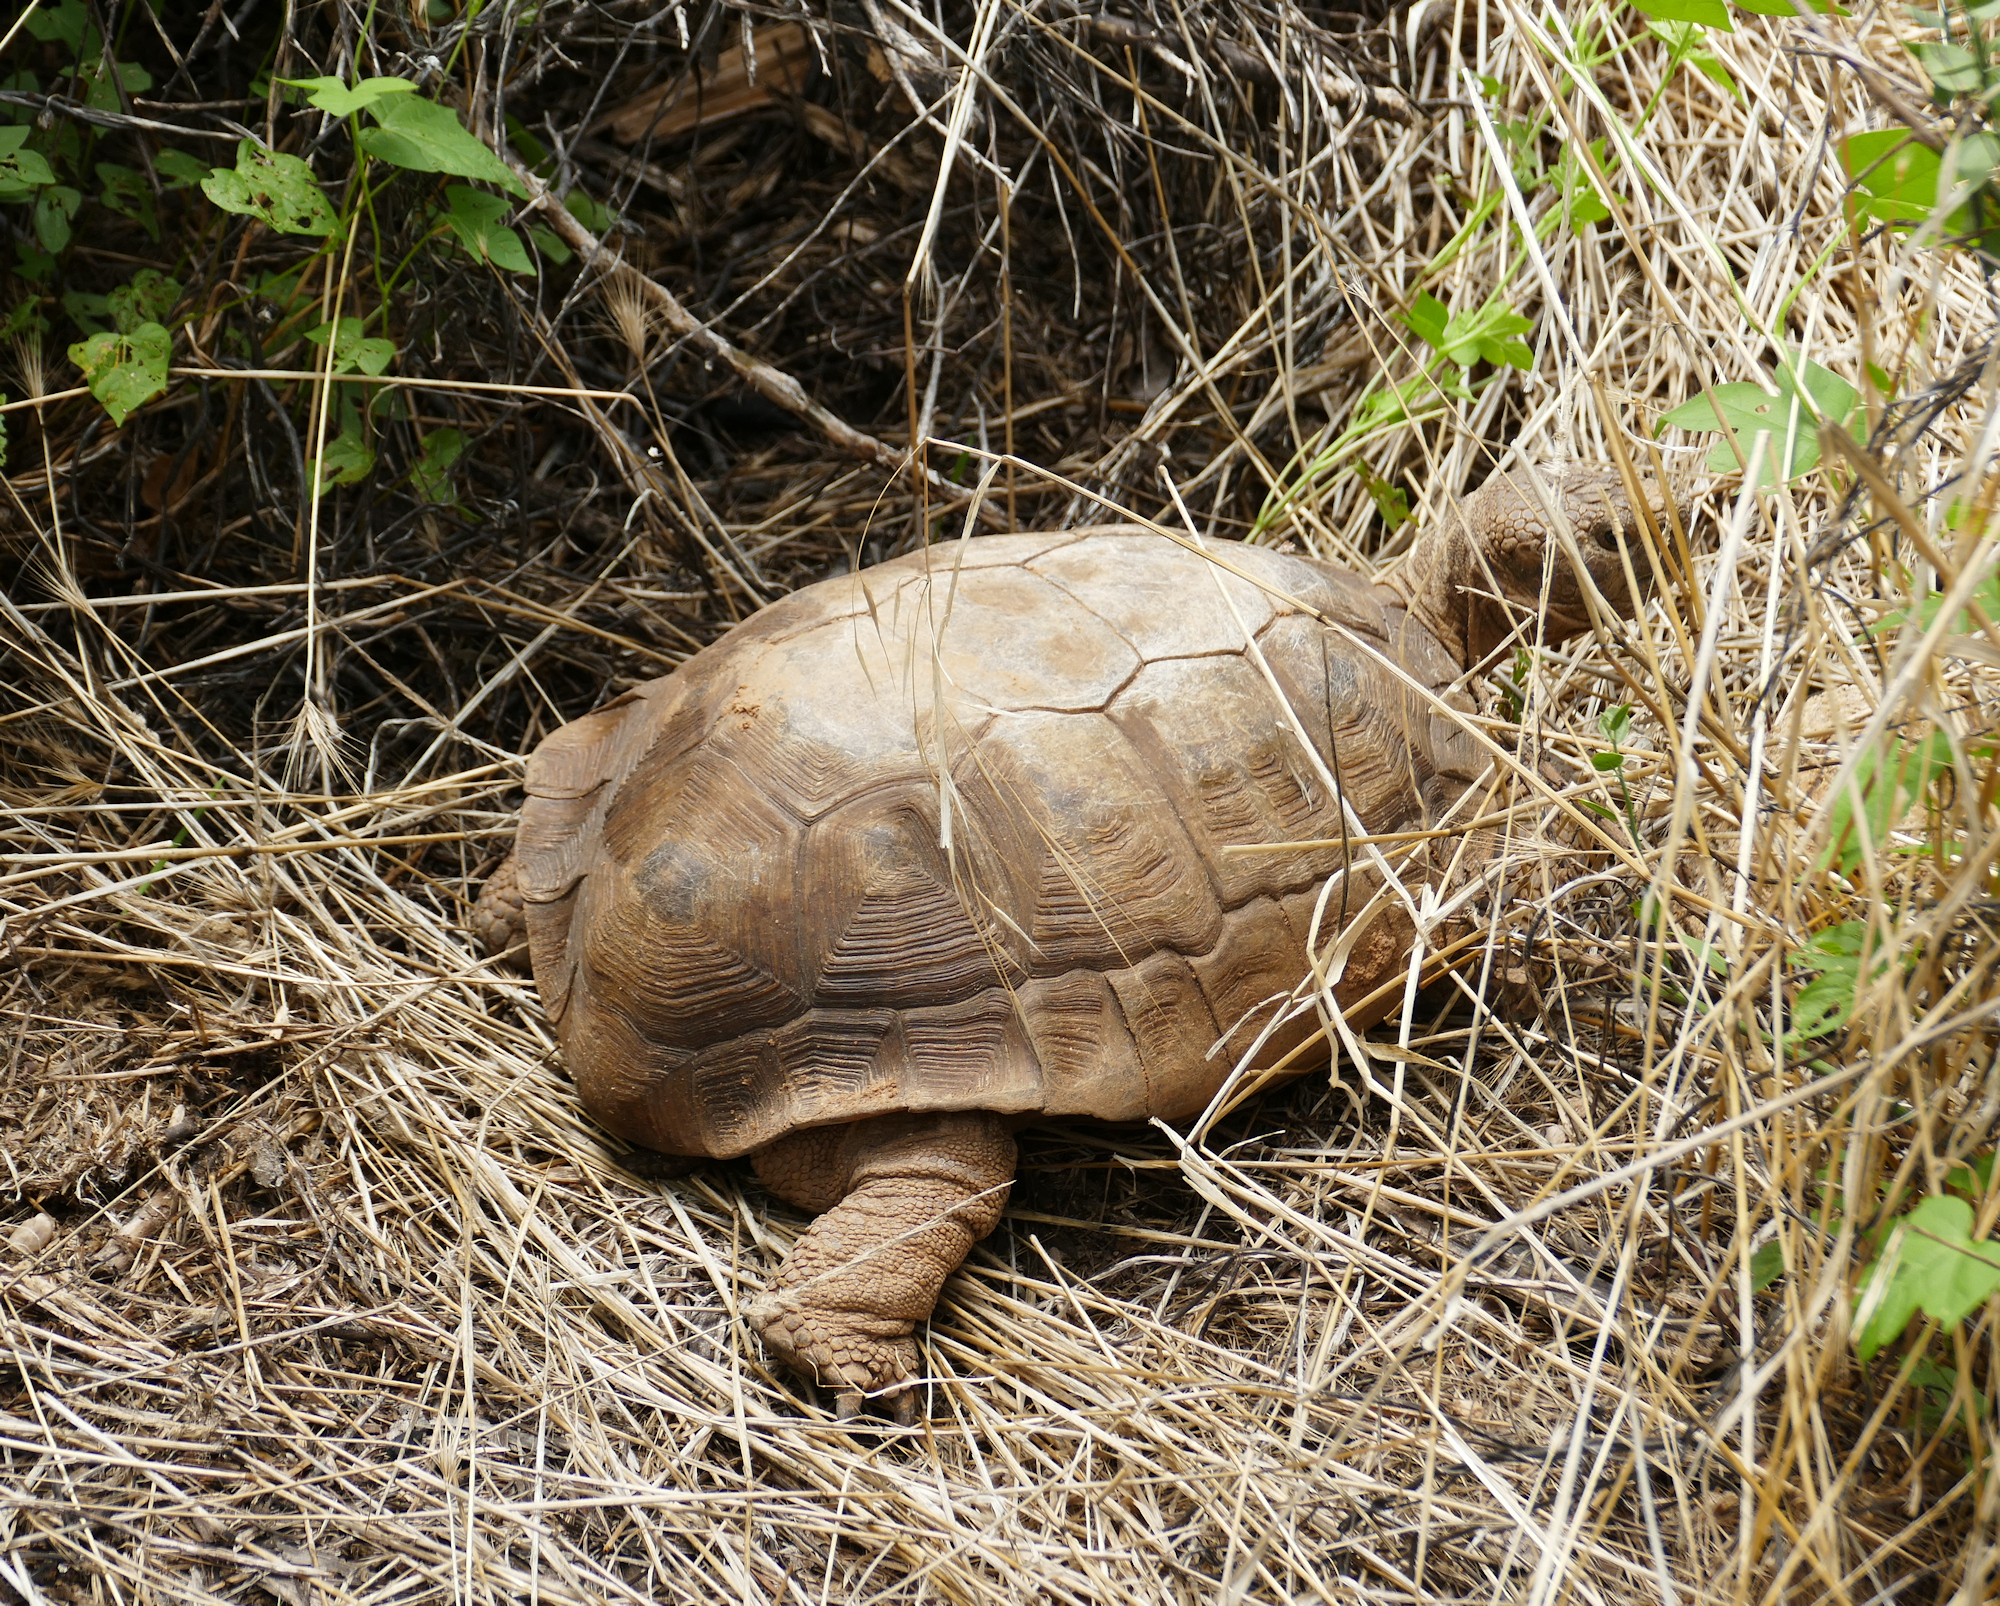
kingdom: Animalia
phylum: Chordata
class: Testudines
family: Testudinidae
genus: Gopherus
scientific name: Gopherus morafkai
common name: Sonoran desert tortoise
